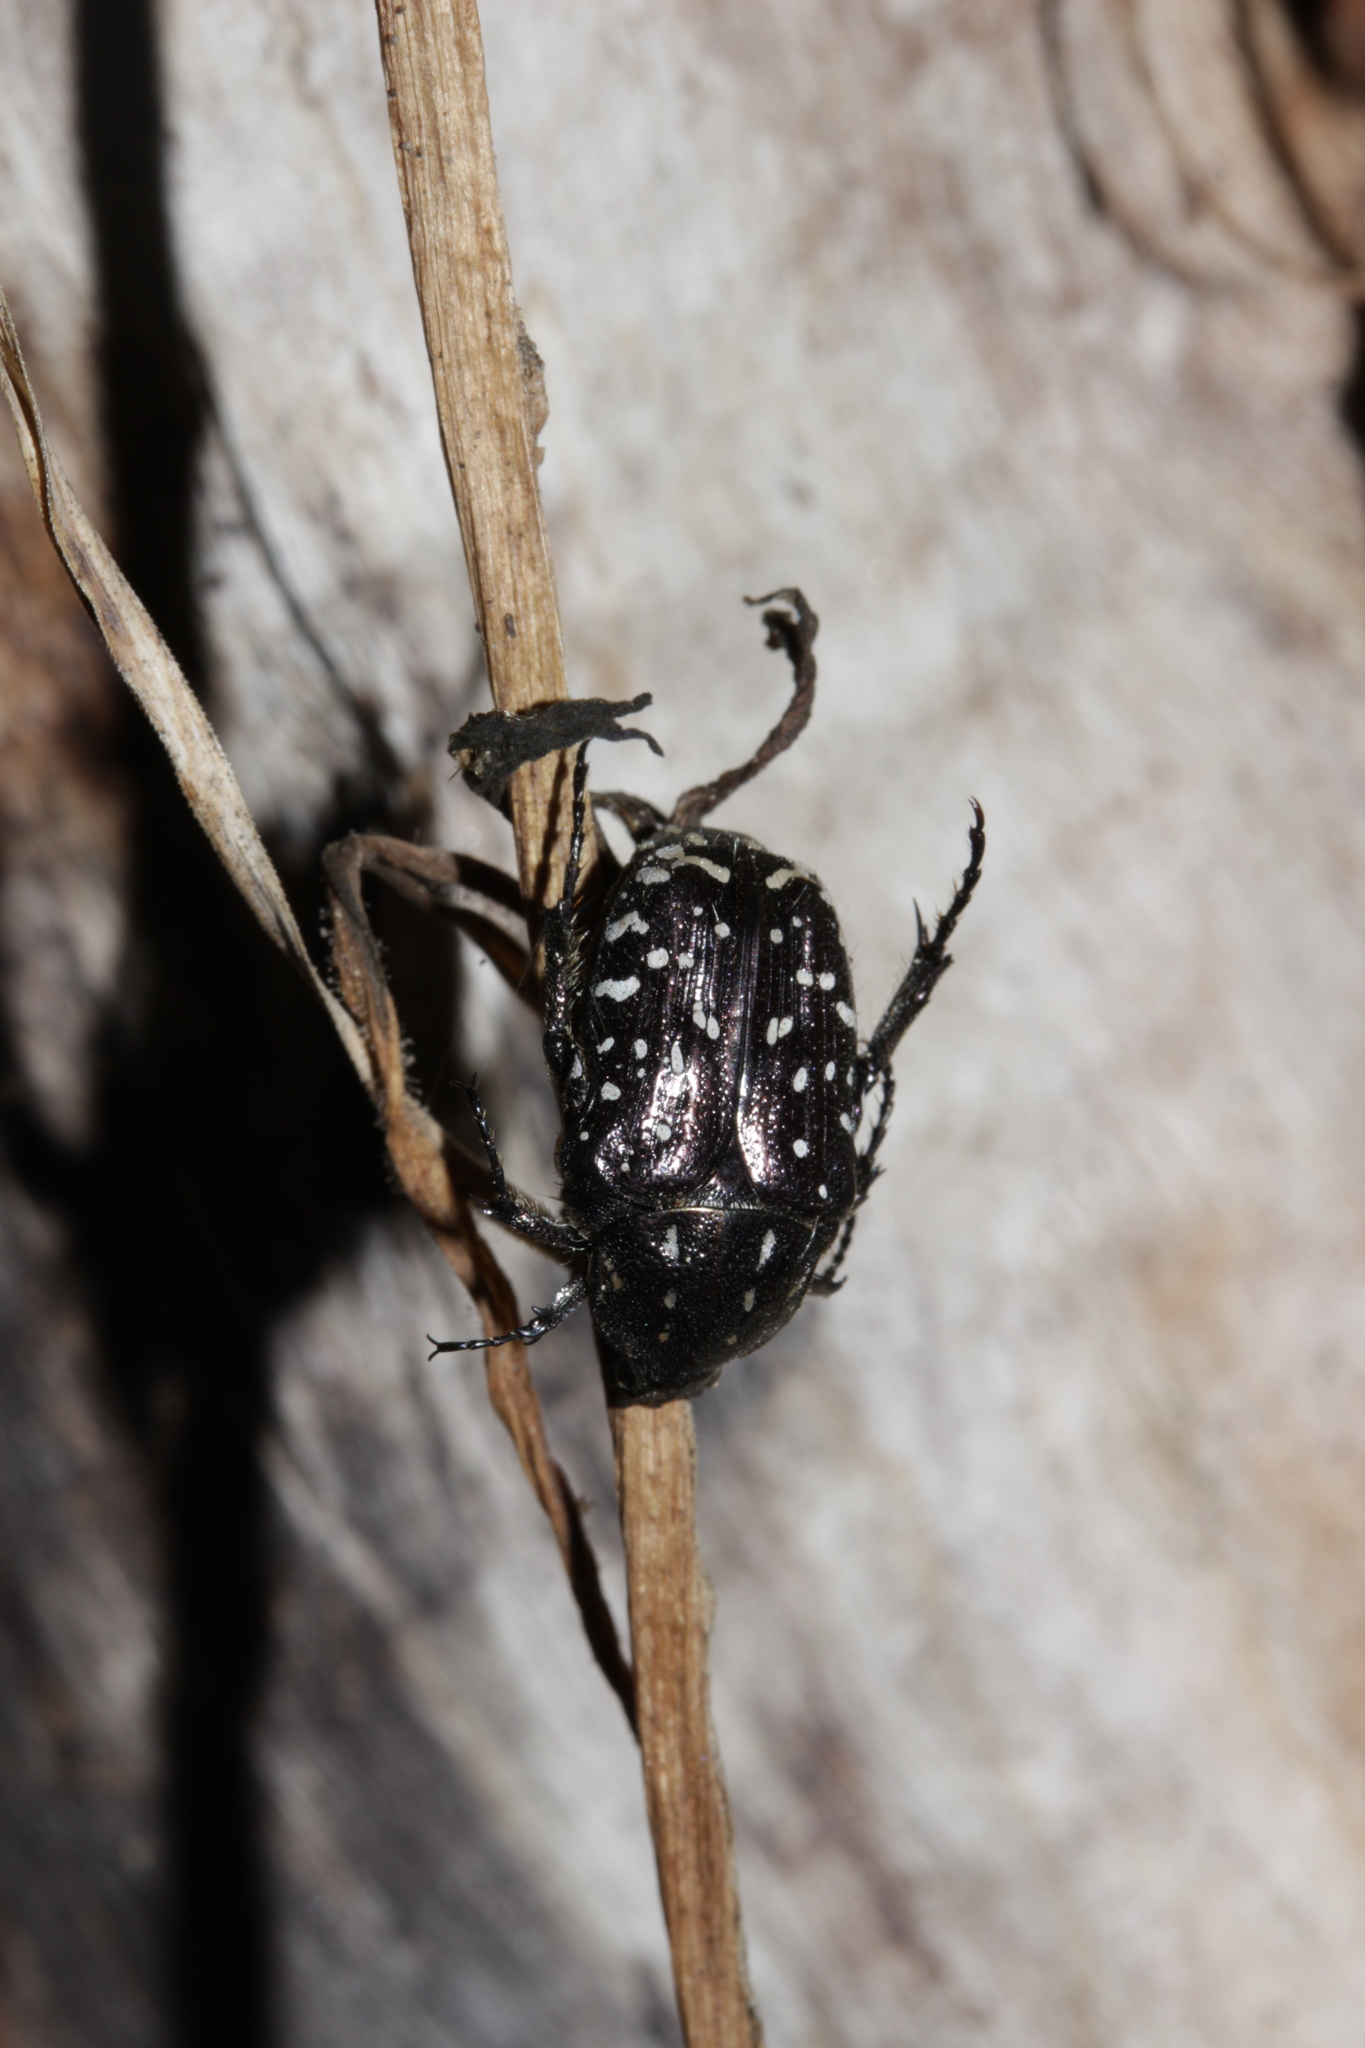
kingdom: Animalia
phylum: Arthropoda
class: Insecta
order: Coleoptera
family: Scarabaeidae
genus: Oxythyrea
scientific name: Oxythyrea funesta
